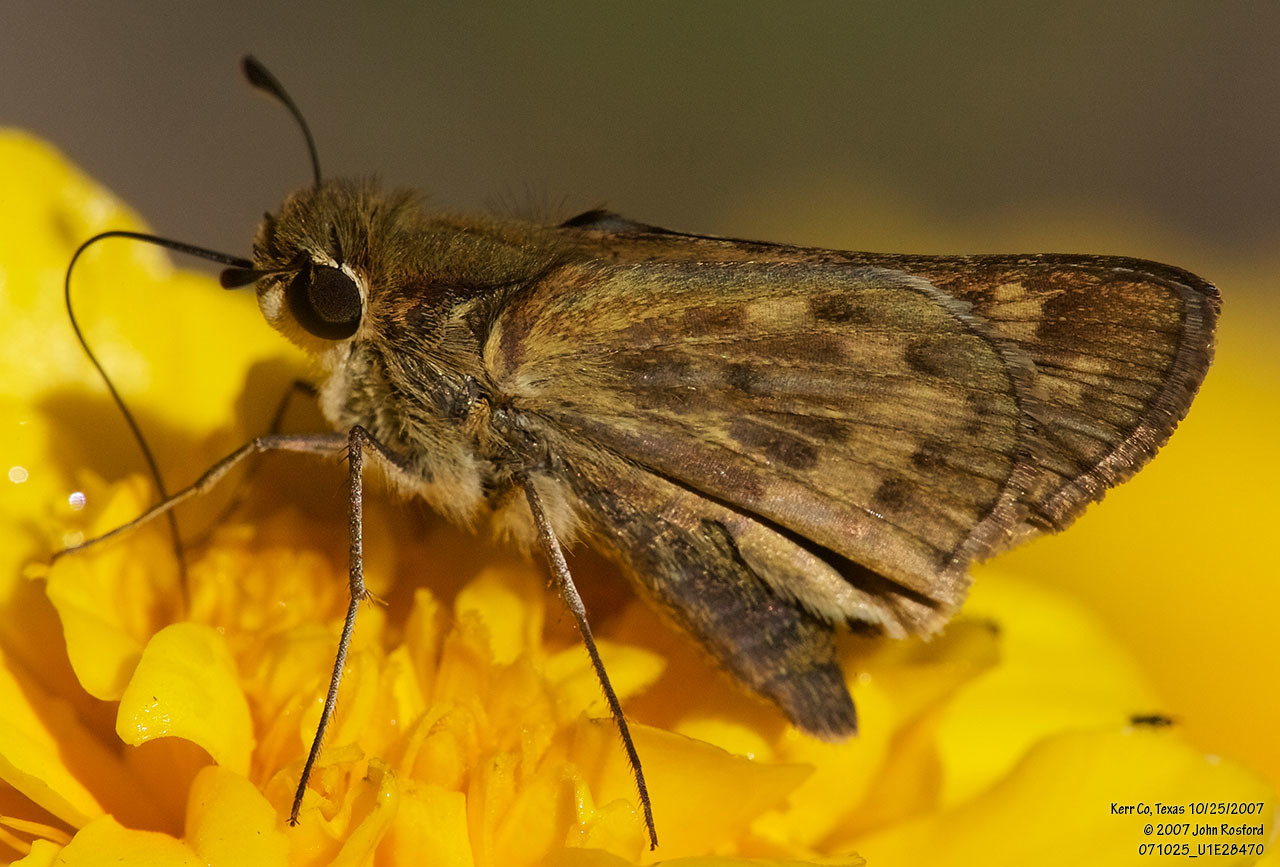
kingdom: Animalia
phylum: Arthropoda
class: Insecta
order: Lepidoptera
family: Hesperiidae
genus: Hylephila
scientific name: Hylephila phyleus
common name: Fiery skipper
